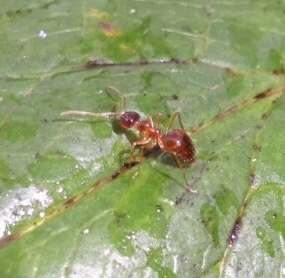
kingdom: Animalia
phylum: Arthropoda
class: Insecta
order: Hymenoptera
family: Formicidae
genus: Prenolepis
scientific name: Prenolepis imparis
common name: Small honey ant
